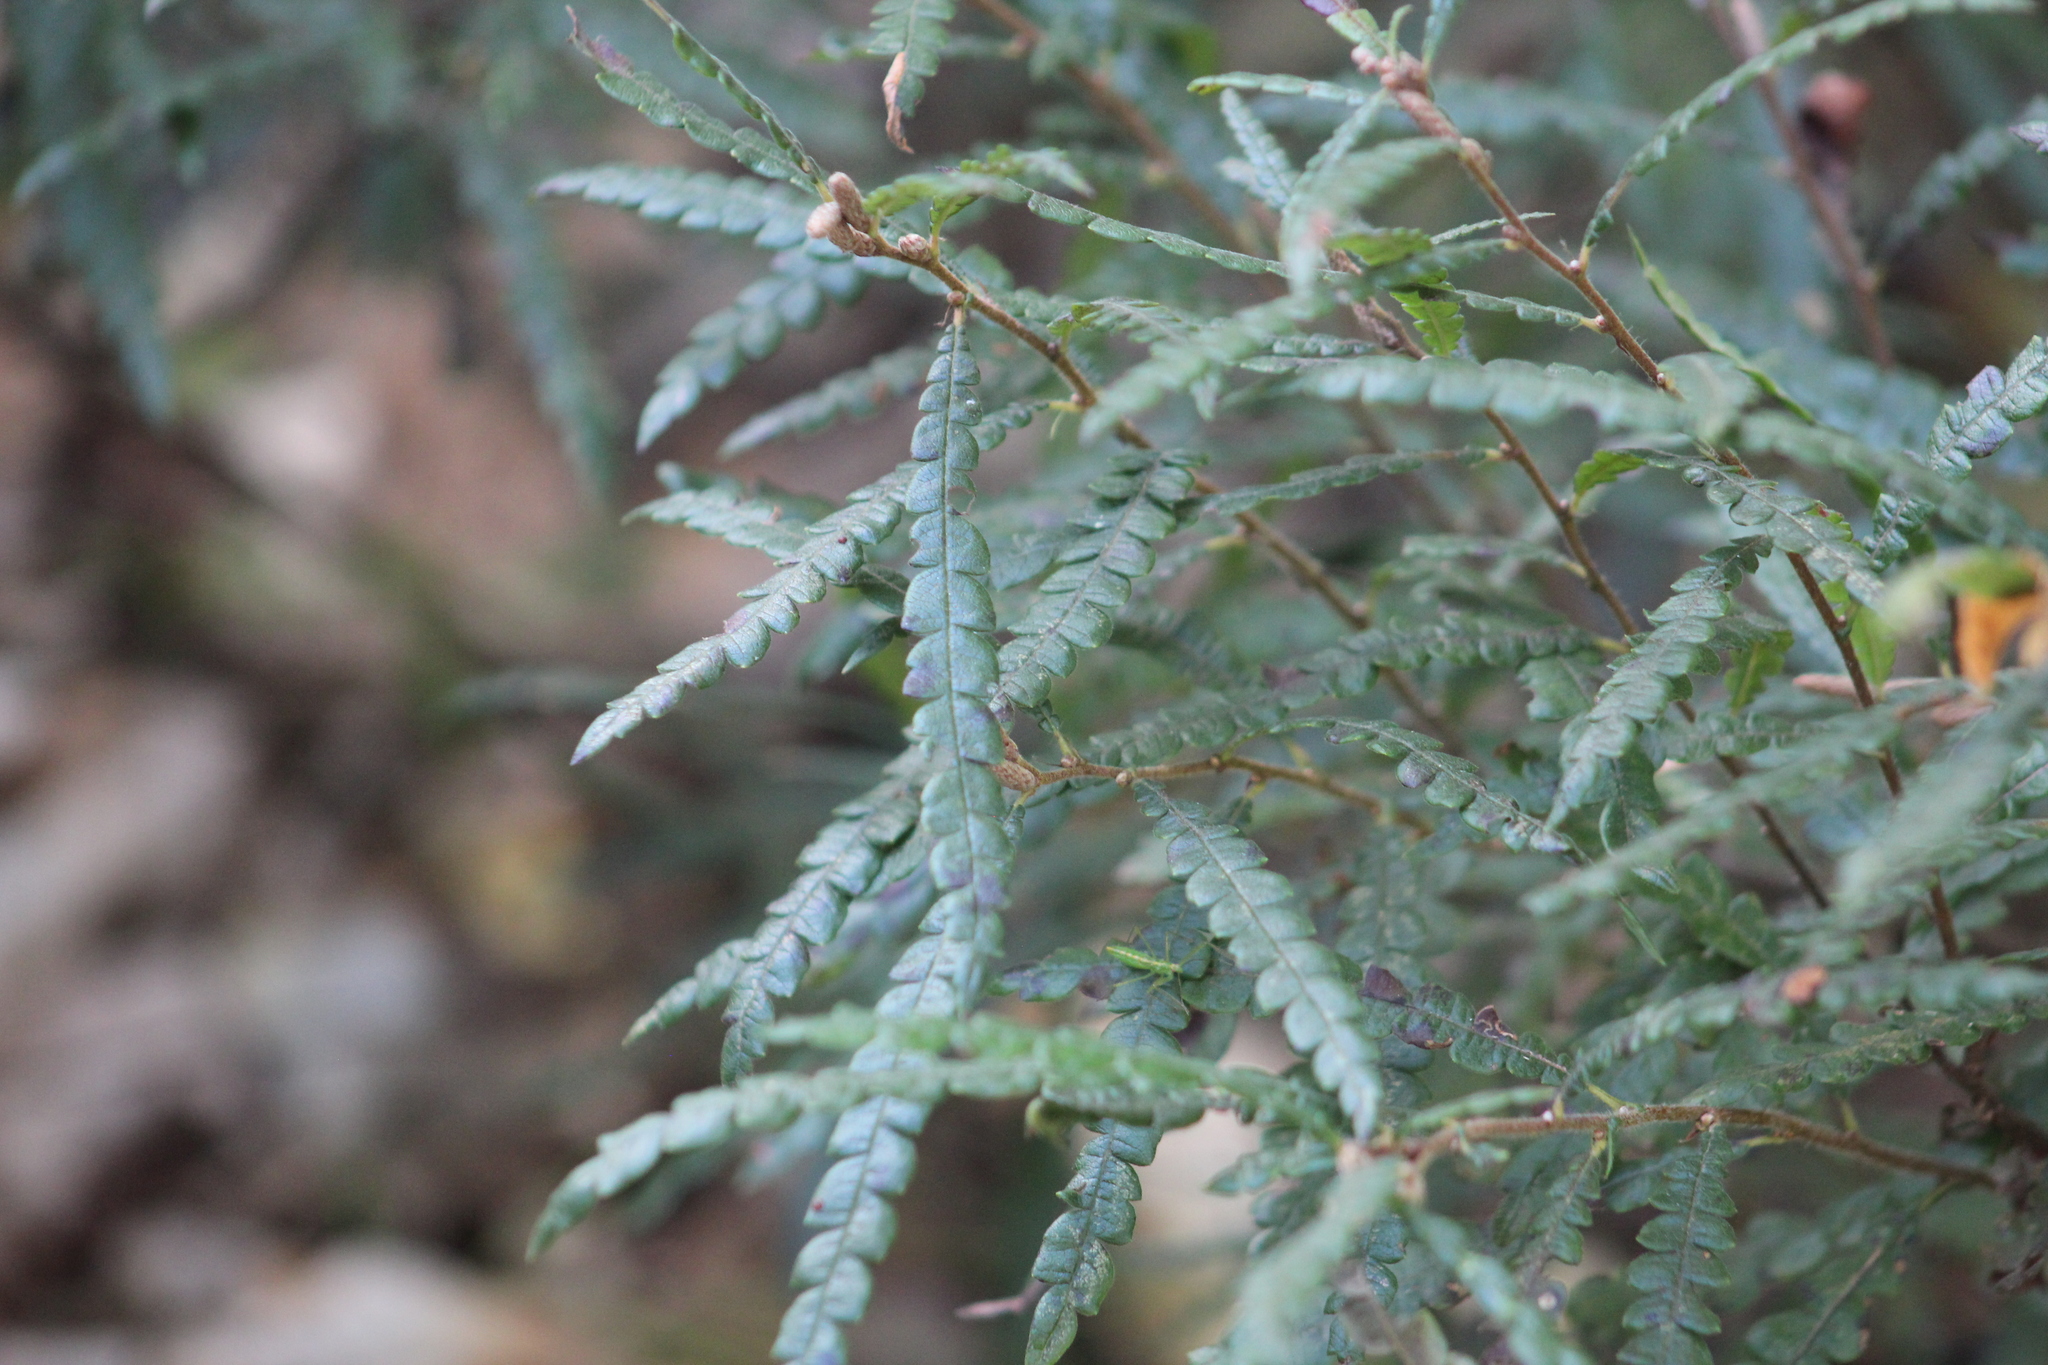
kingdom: Plantae
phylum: Tracheophyta
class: Magnoliopsida
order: Fagales
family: Myricaceae
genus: Comptonia
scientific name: Comptonia peregrina
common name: Sweet-fern
